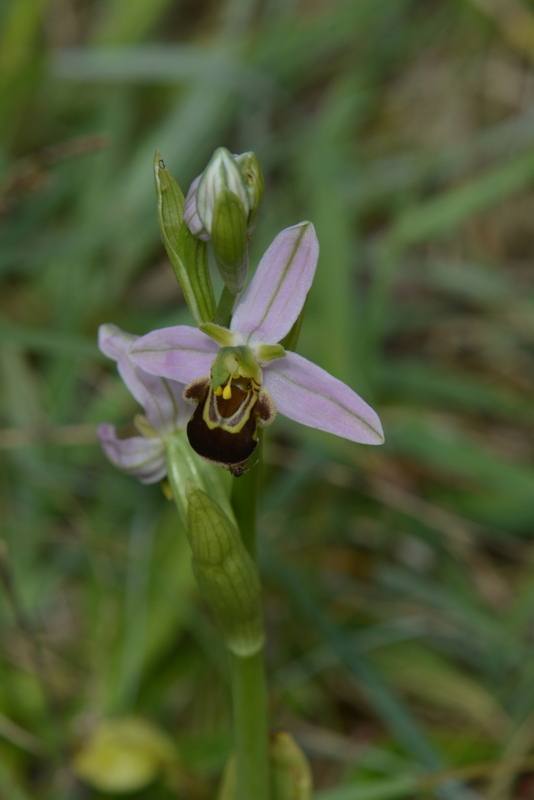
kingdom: Plantae
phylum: Tracheophyta
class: Liliopsida
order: Asparagales
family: Orchidaceae
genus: Ophrys
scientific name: Ophrys apifera
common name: Bee orchid
